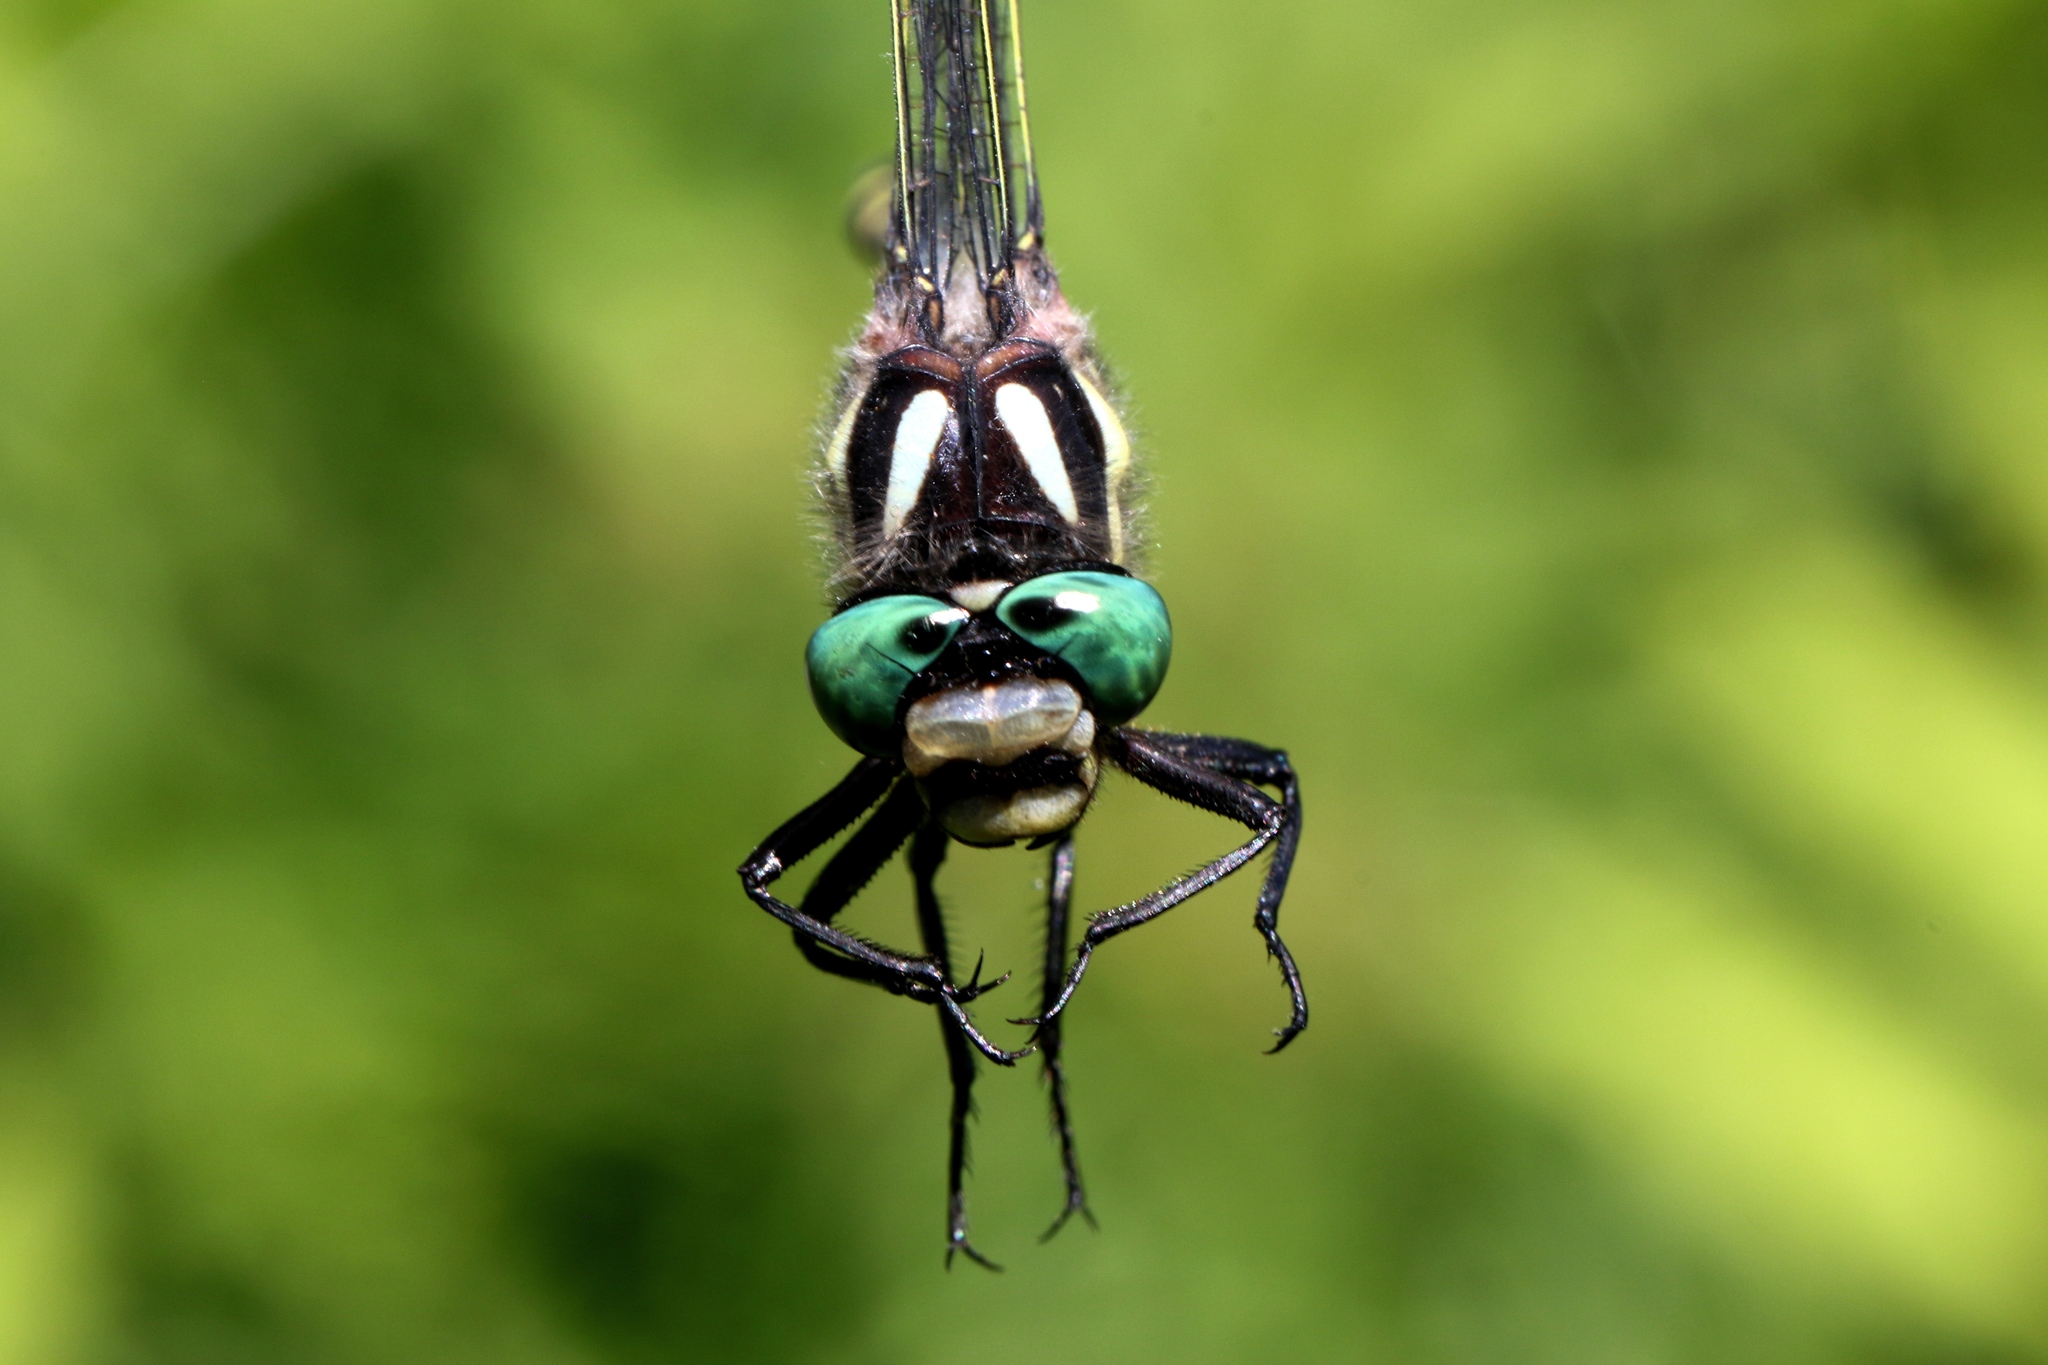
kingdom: Animalia
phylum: Arthropoda
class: Insecta
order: Odonata
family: Cordulegastridae
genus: Cordulegaster
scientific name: Cordulegaster diastatops
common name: Delta-spotted spiketail
